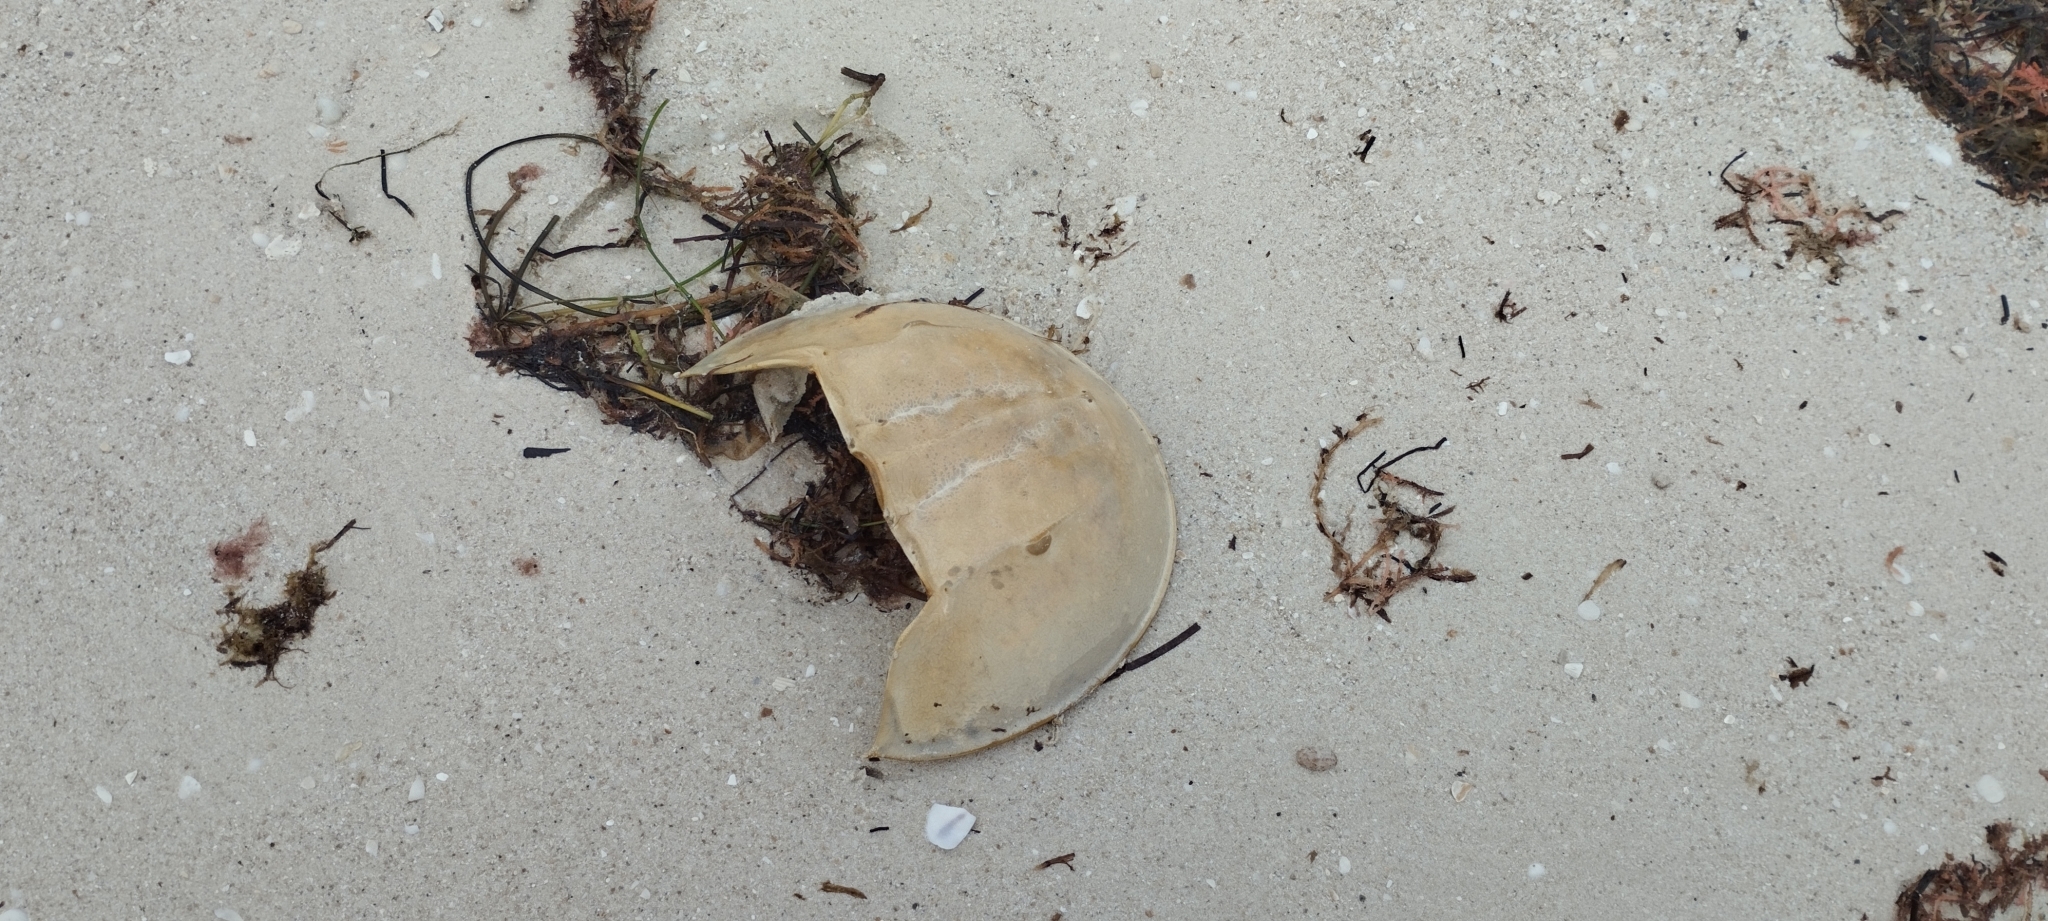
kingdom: Animalia
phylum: Arthropoda
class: Merostomata
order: Xiphosurida
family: Limulidae
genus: Limulus
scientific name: Limulus polyphemus
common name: Horseshoe crab
